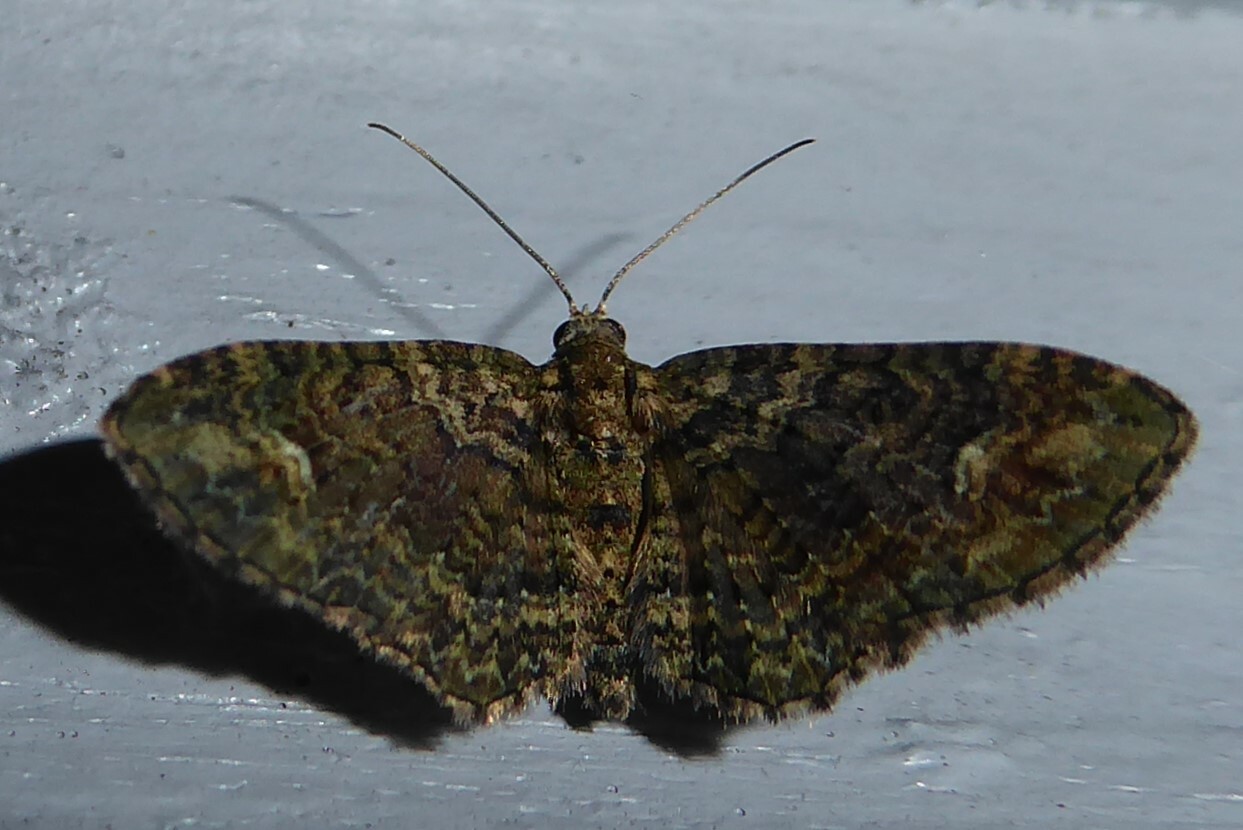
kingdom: Animalia
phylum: Arthropoda
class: Insecta
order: Lepidoptera
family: Geometridae
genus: Pasiphilodes
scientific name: Pasiphilodes testulata
